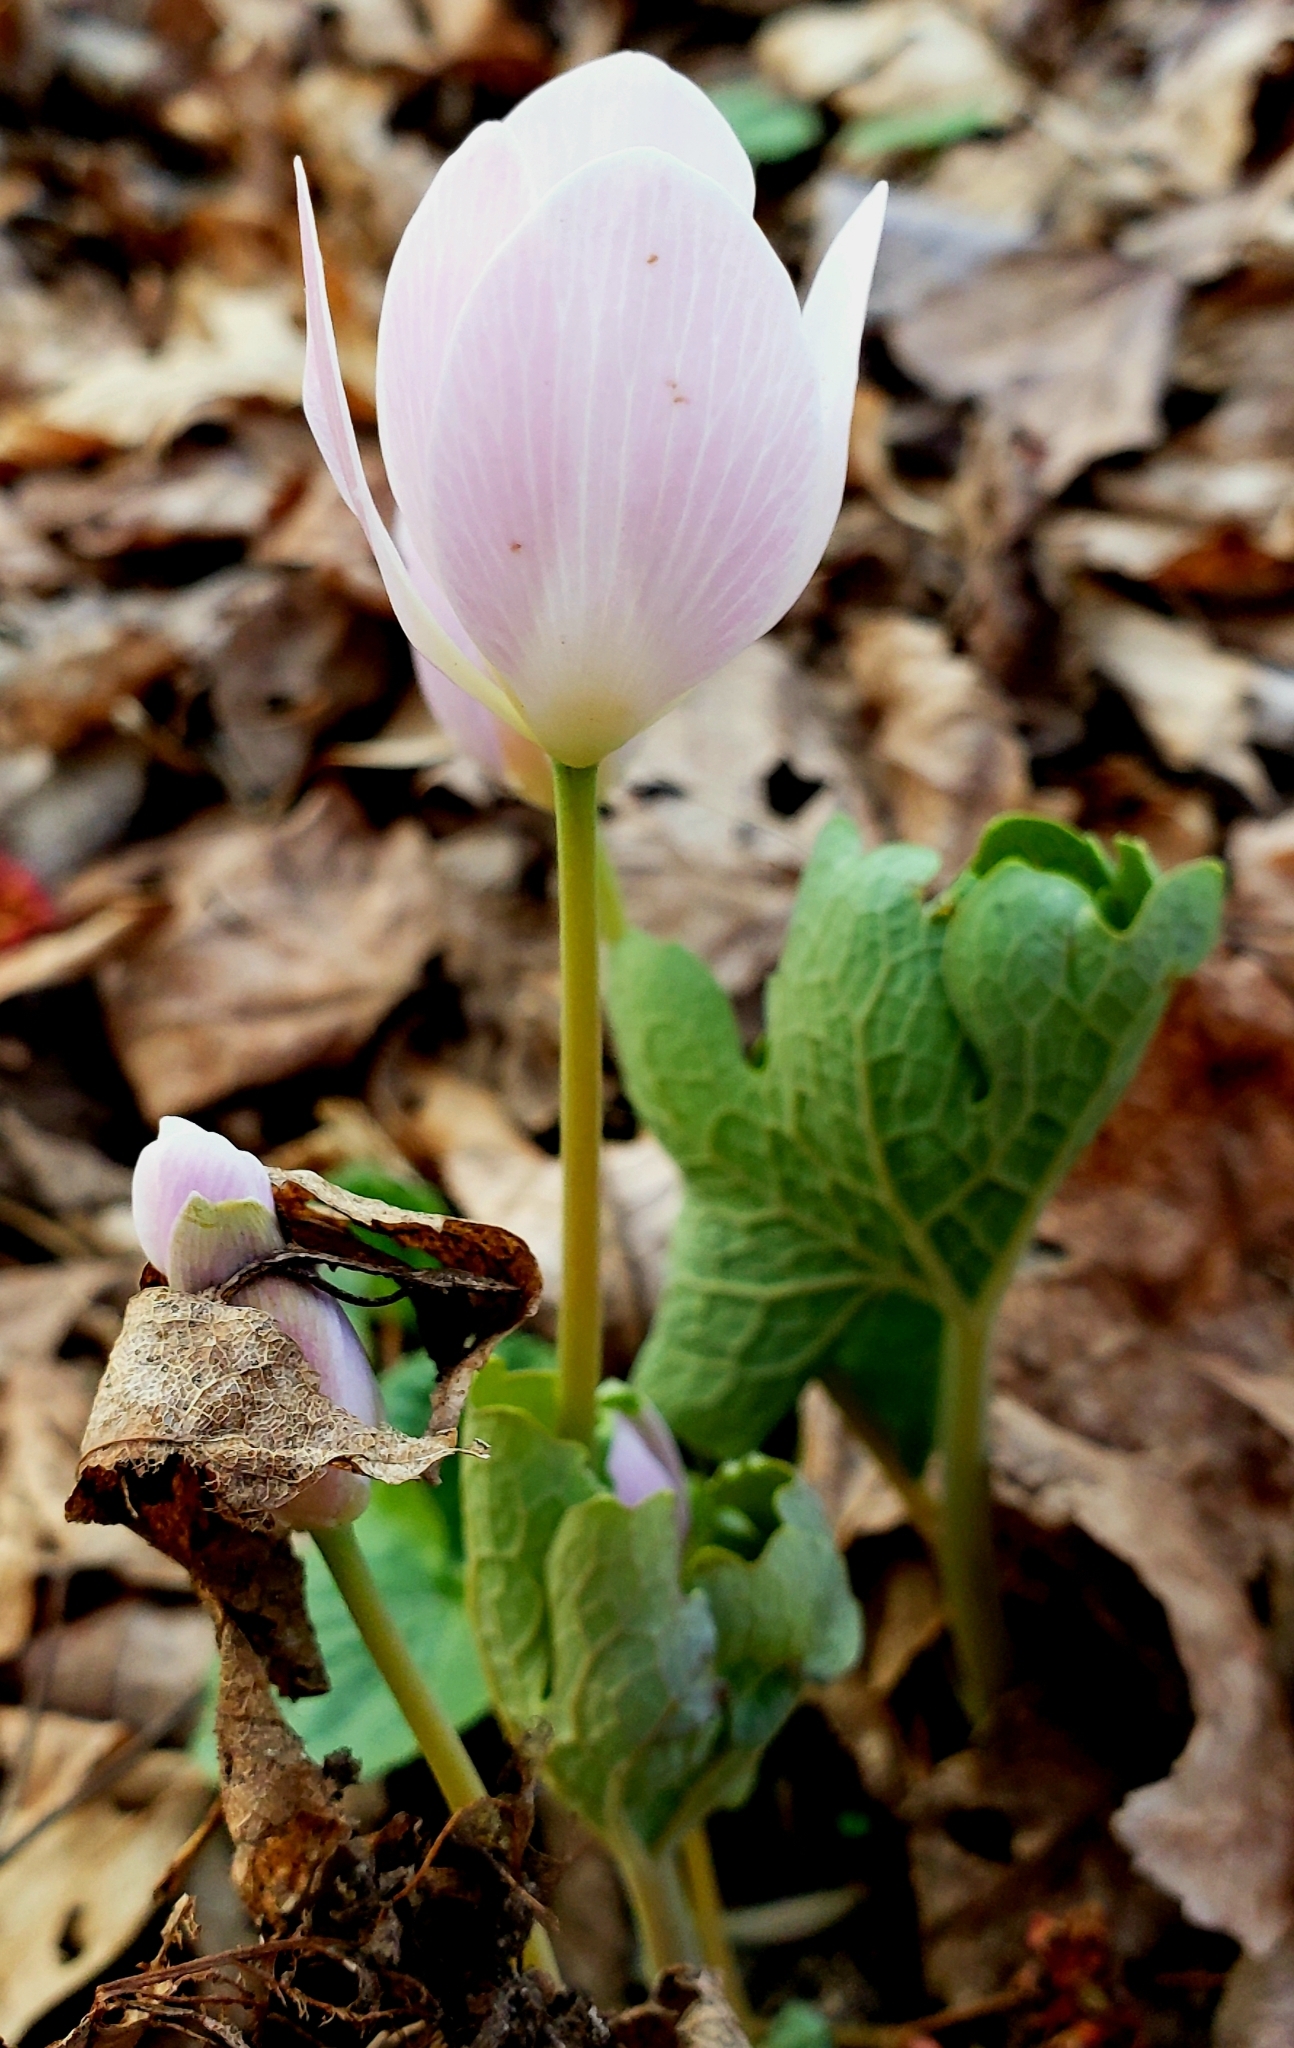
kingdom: Plantae
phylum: Tracheophyta
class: Magnoliopsida
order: Ranunculales
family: Papaveraceae
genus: Sanguinaria
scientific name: Sanguinaria canadensis
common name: Bloodroot
